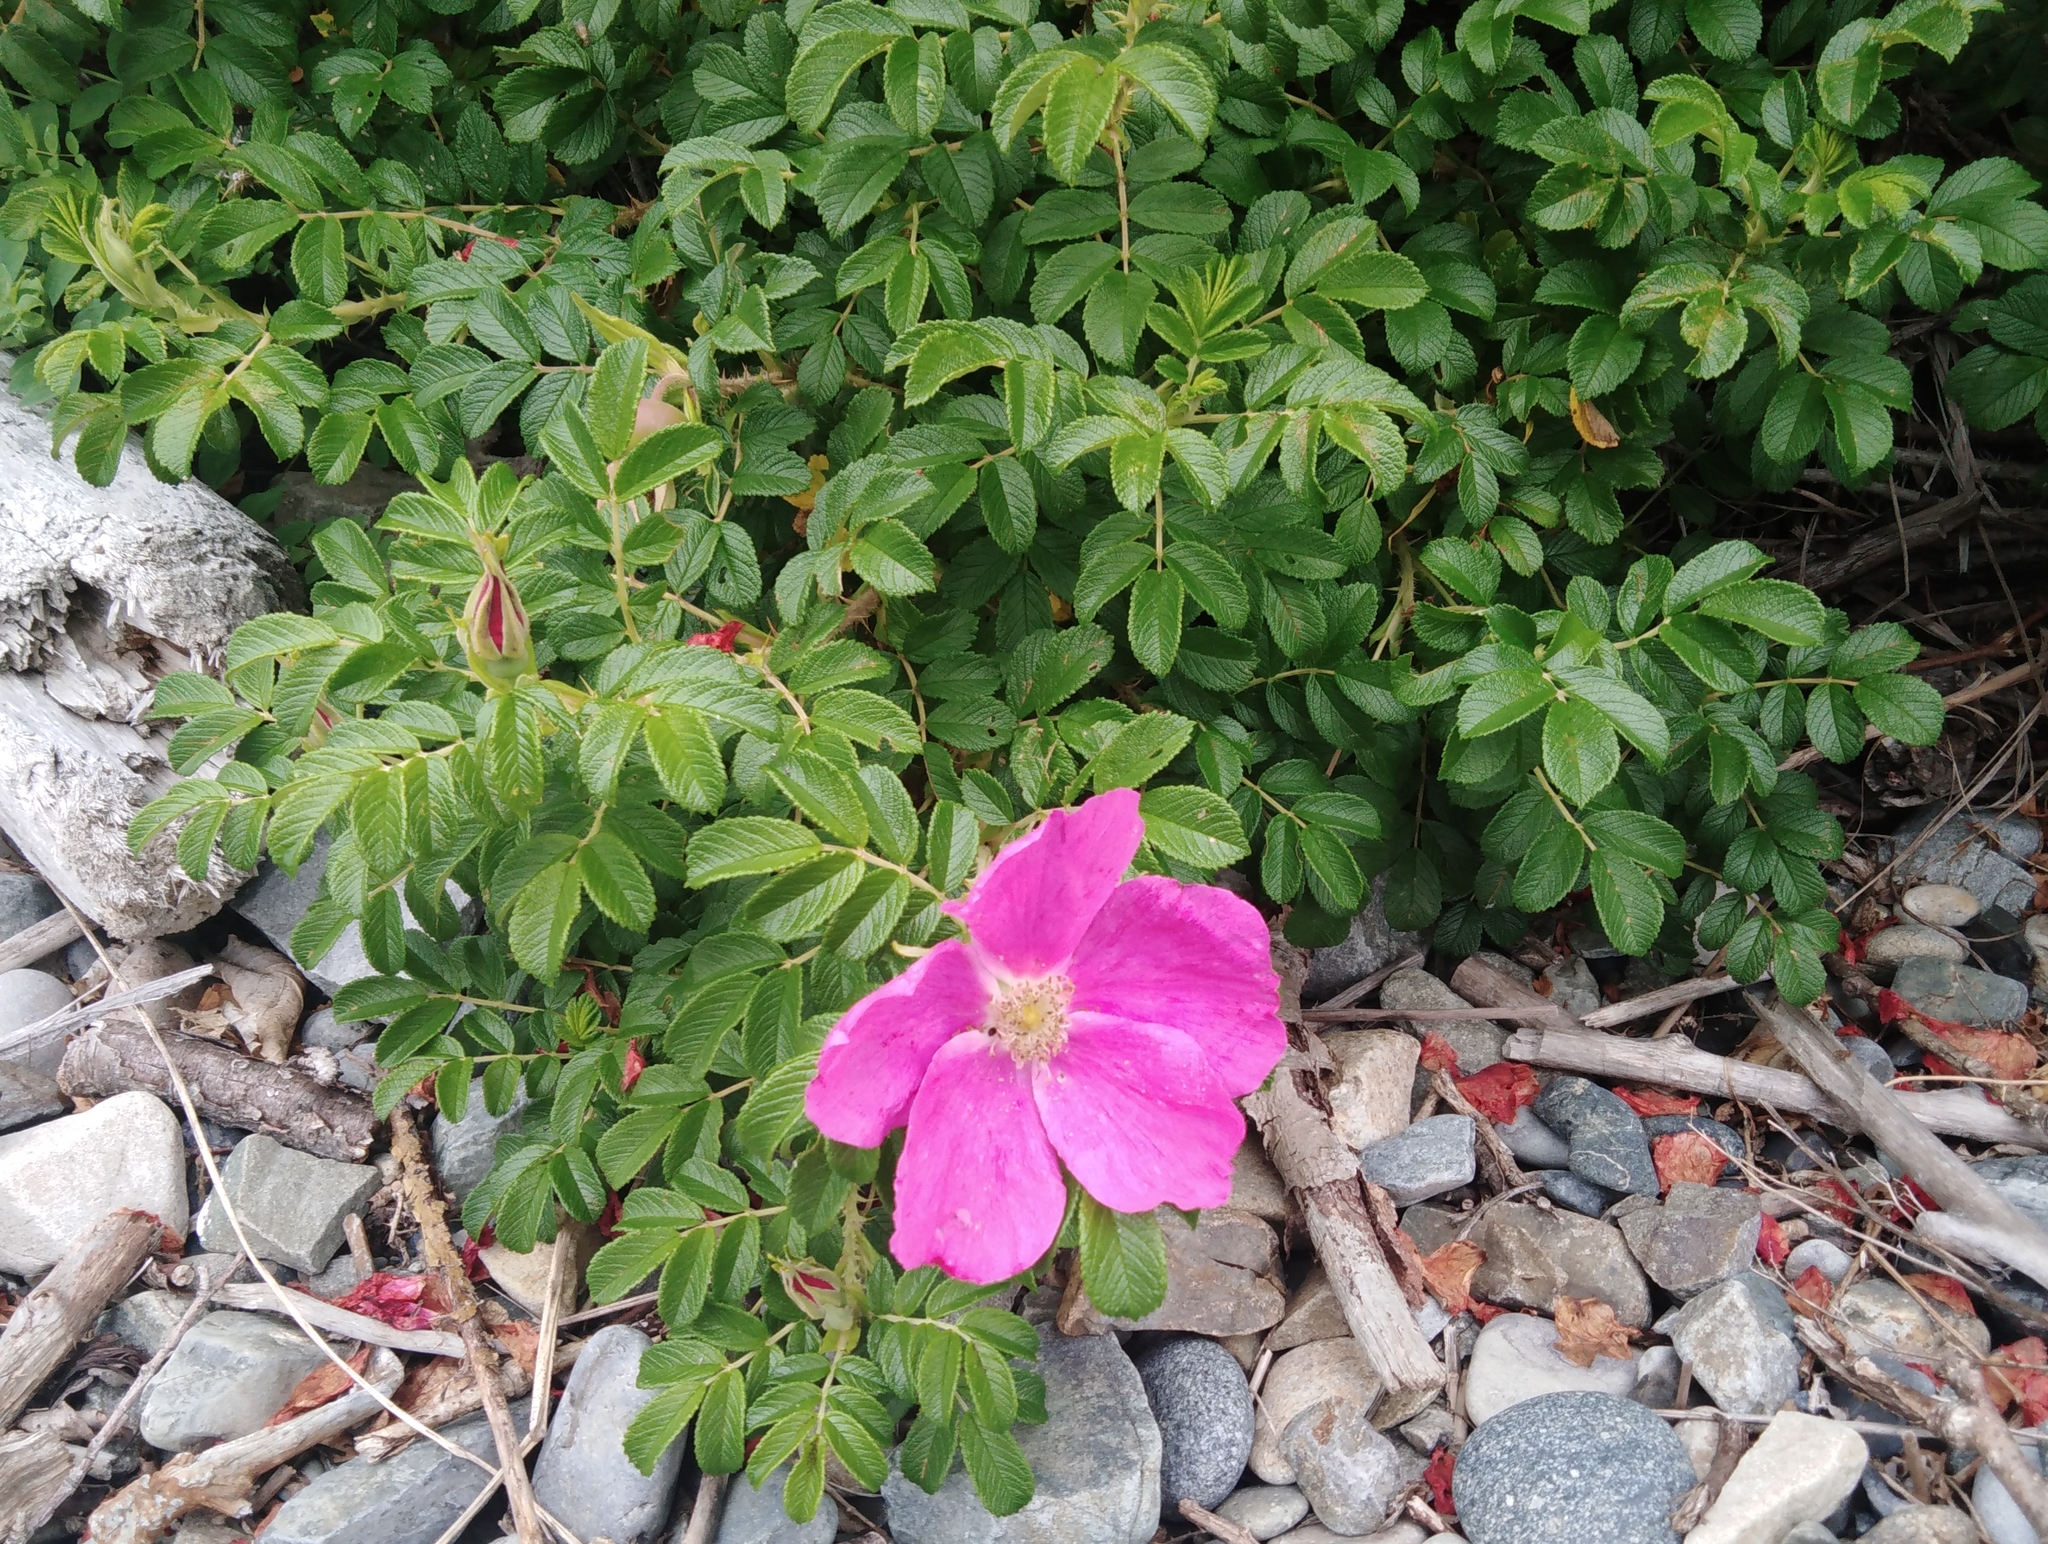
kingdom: Plantae
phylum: Tracheophyta
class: Magnoliopsida
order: Rosales
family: Rosaceae
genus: Rosa
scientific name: Rosa rugosa
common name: Japanese rose
